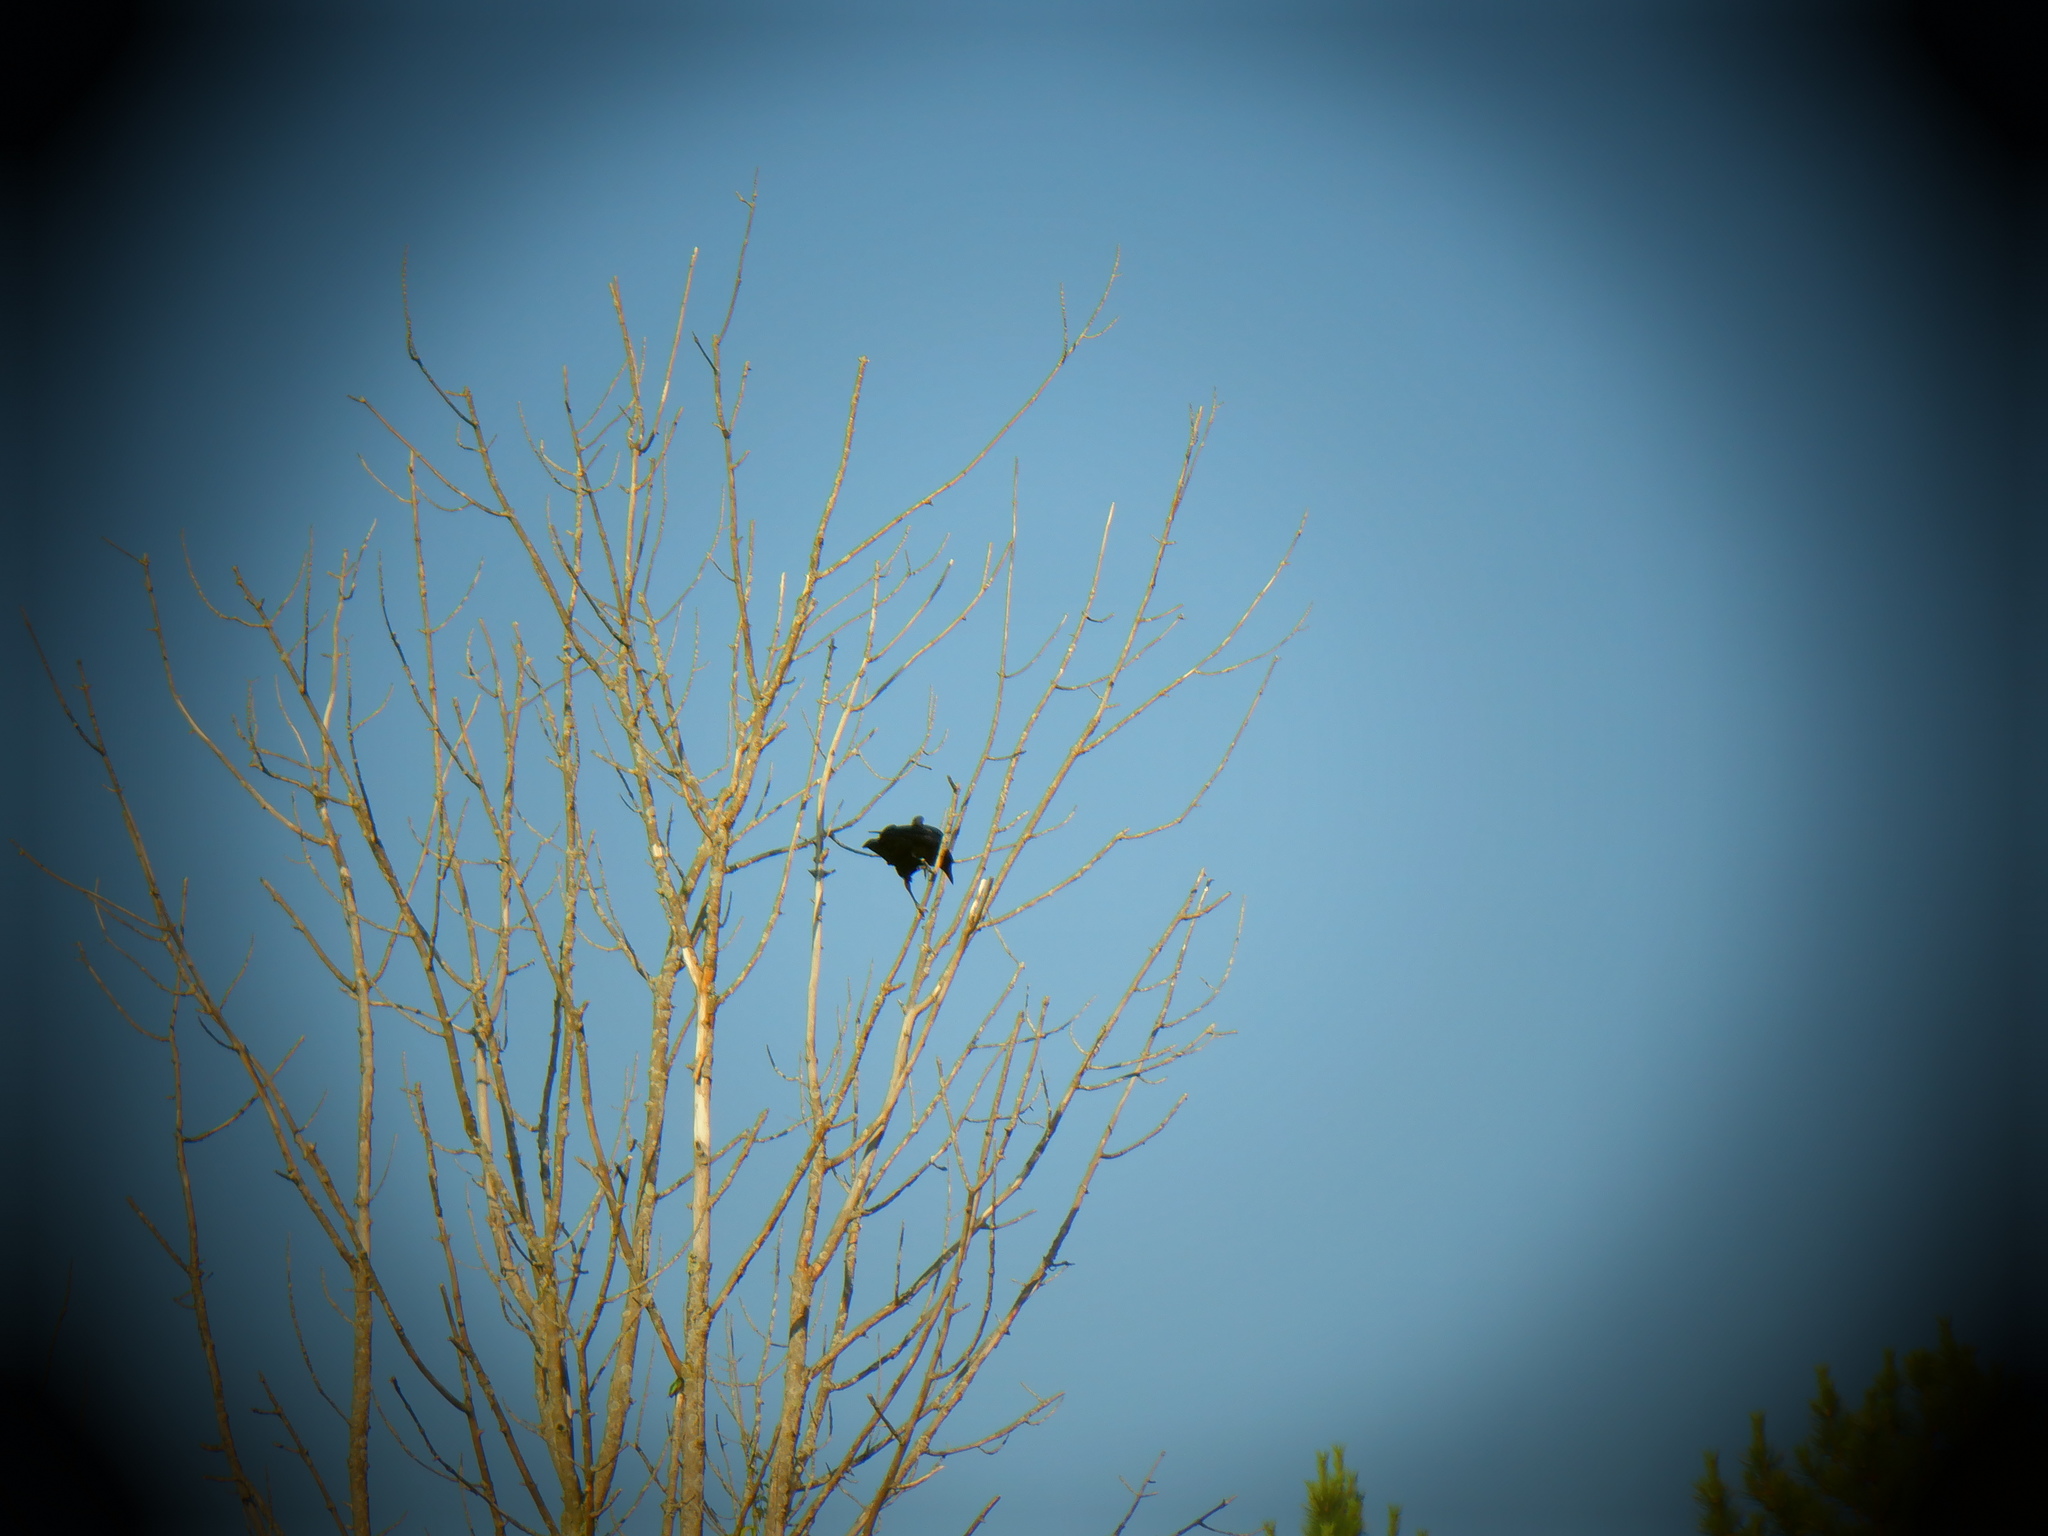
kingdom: Animalia
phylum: Chordata
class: Aves
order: Passeriformes
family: Corvidae
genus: Corvus
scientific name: Corvus brachyrhynchos
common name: American crow
